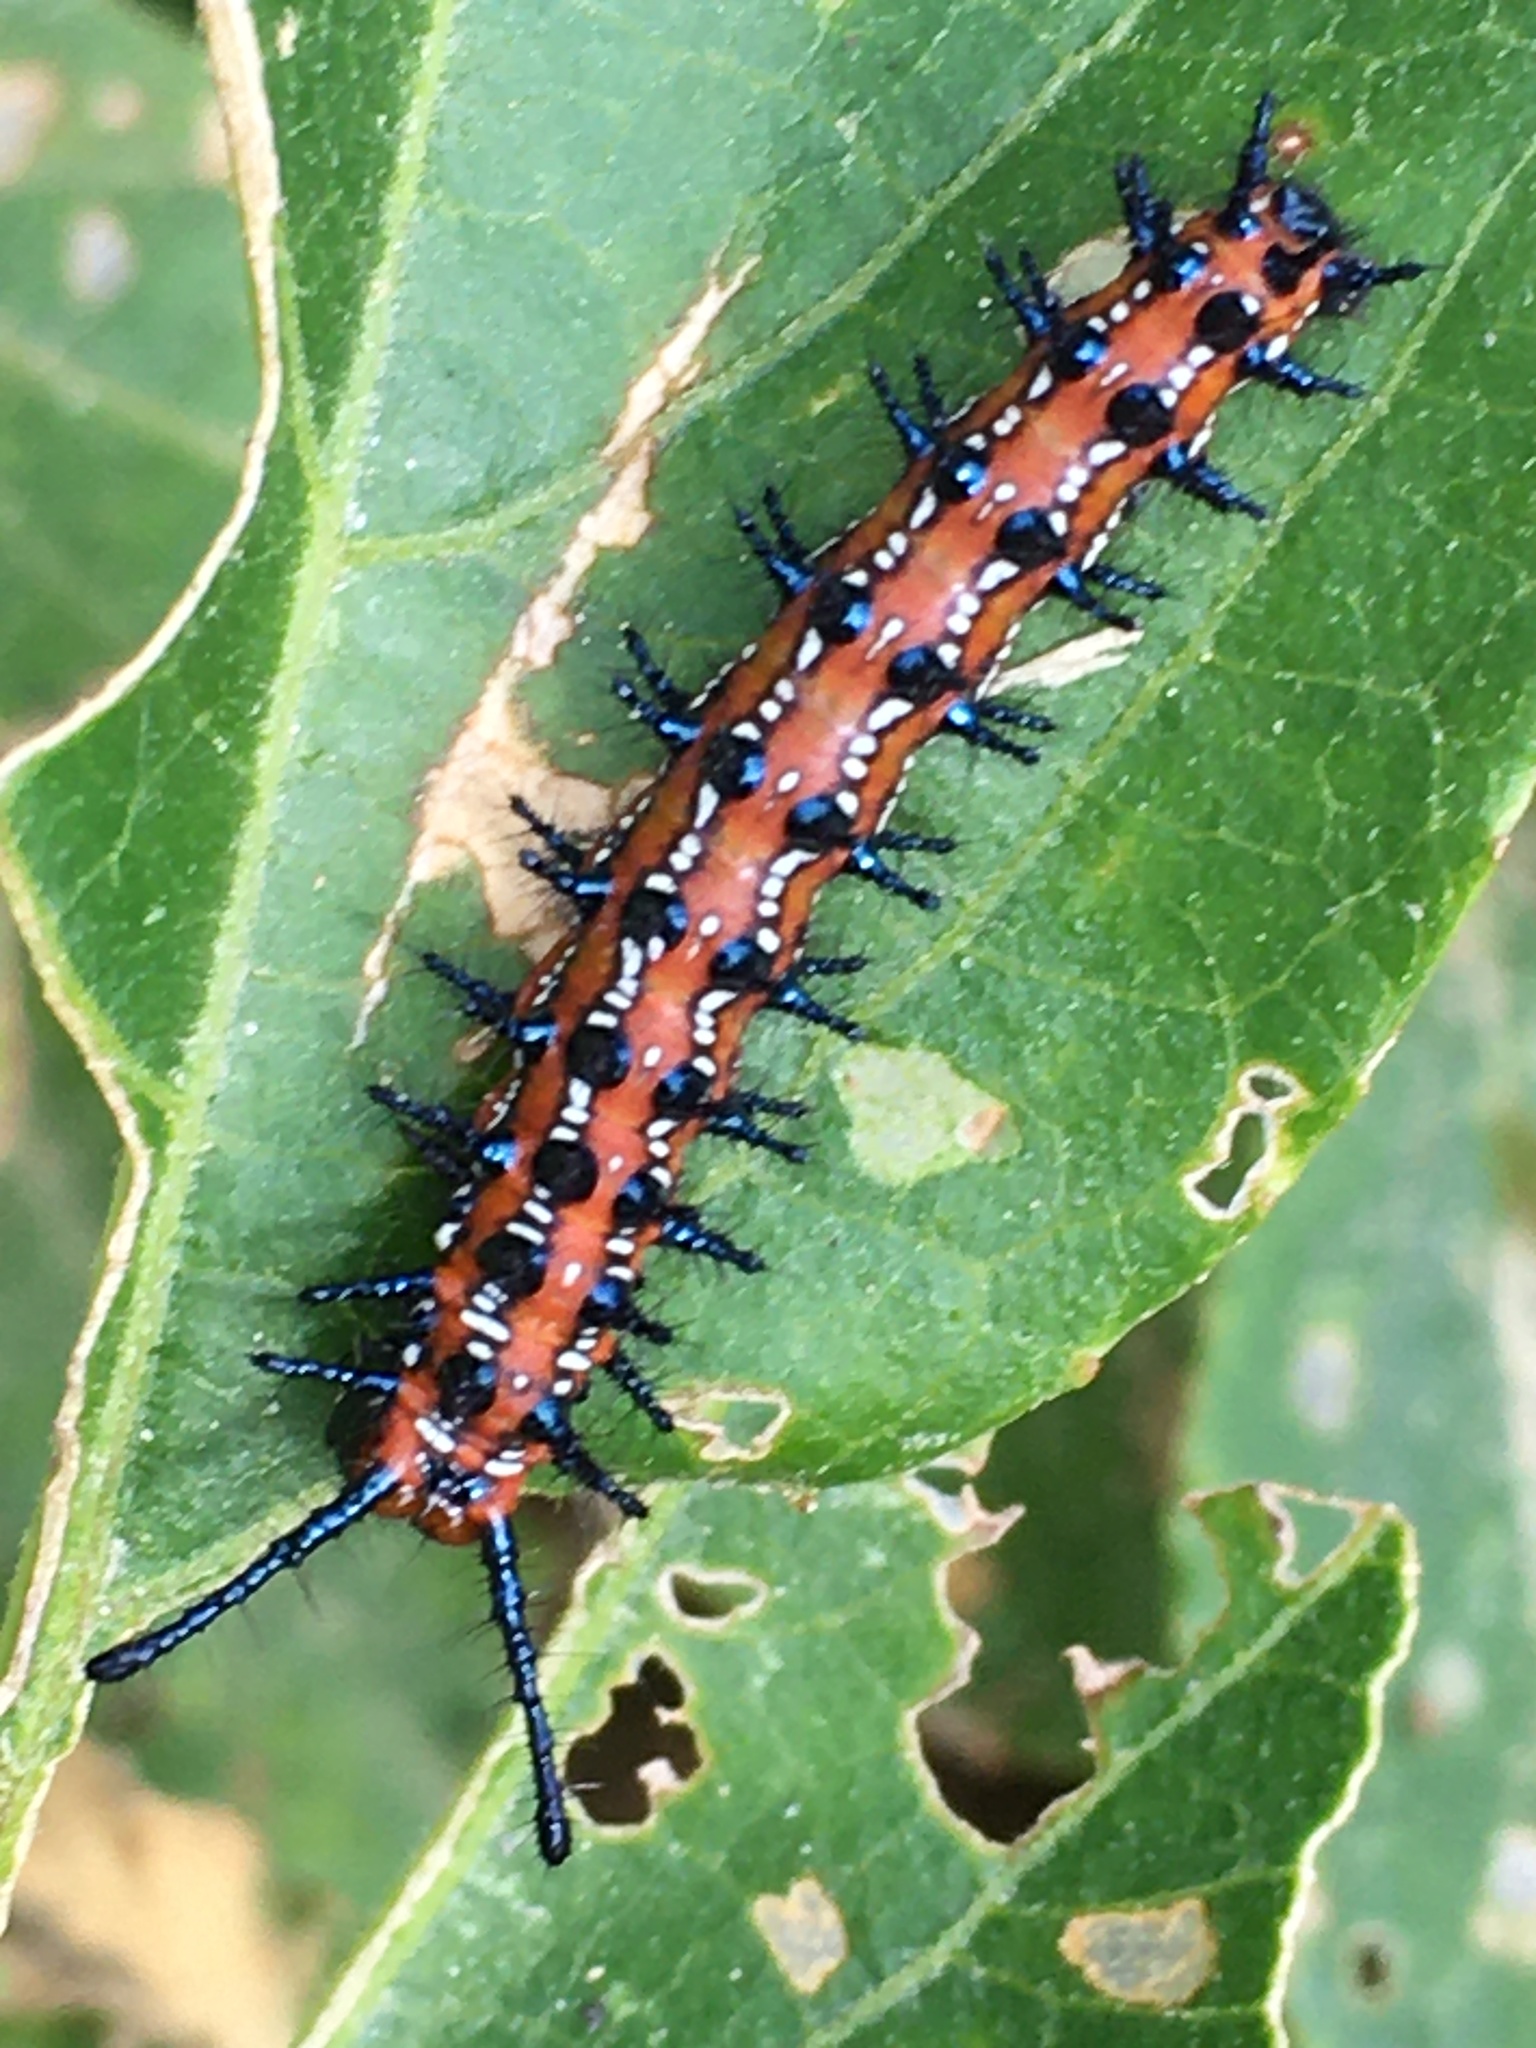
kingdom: Animalia
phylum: Arthropoda
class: Insecta
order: Lepidoptera
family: Nymphalidae
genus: Euptoieta
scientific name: Euptoieta claudia
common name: Variegated fritillary
